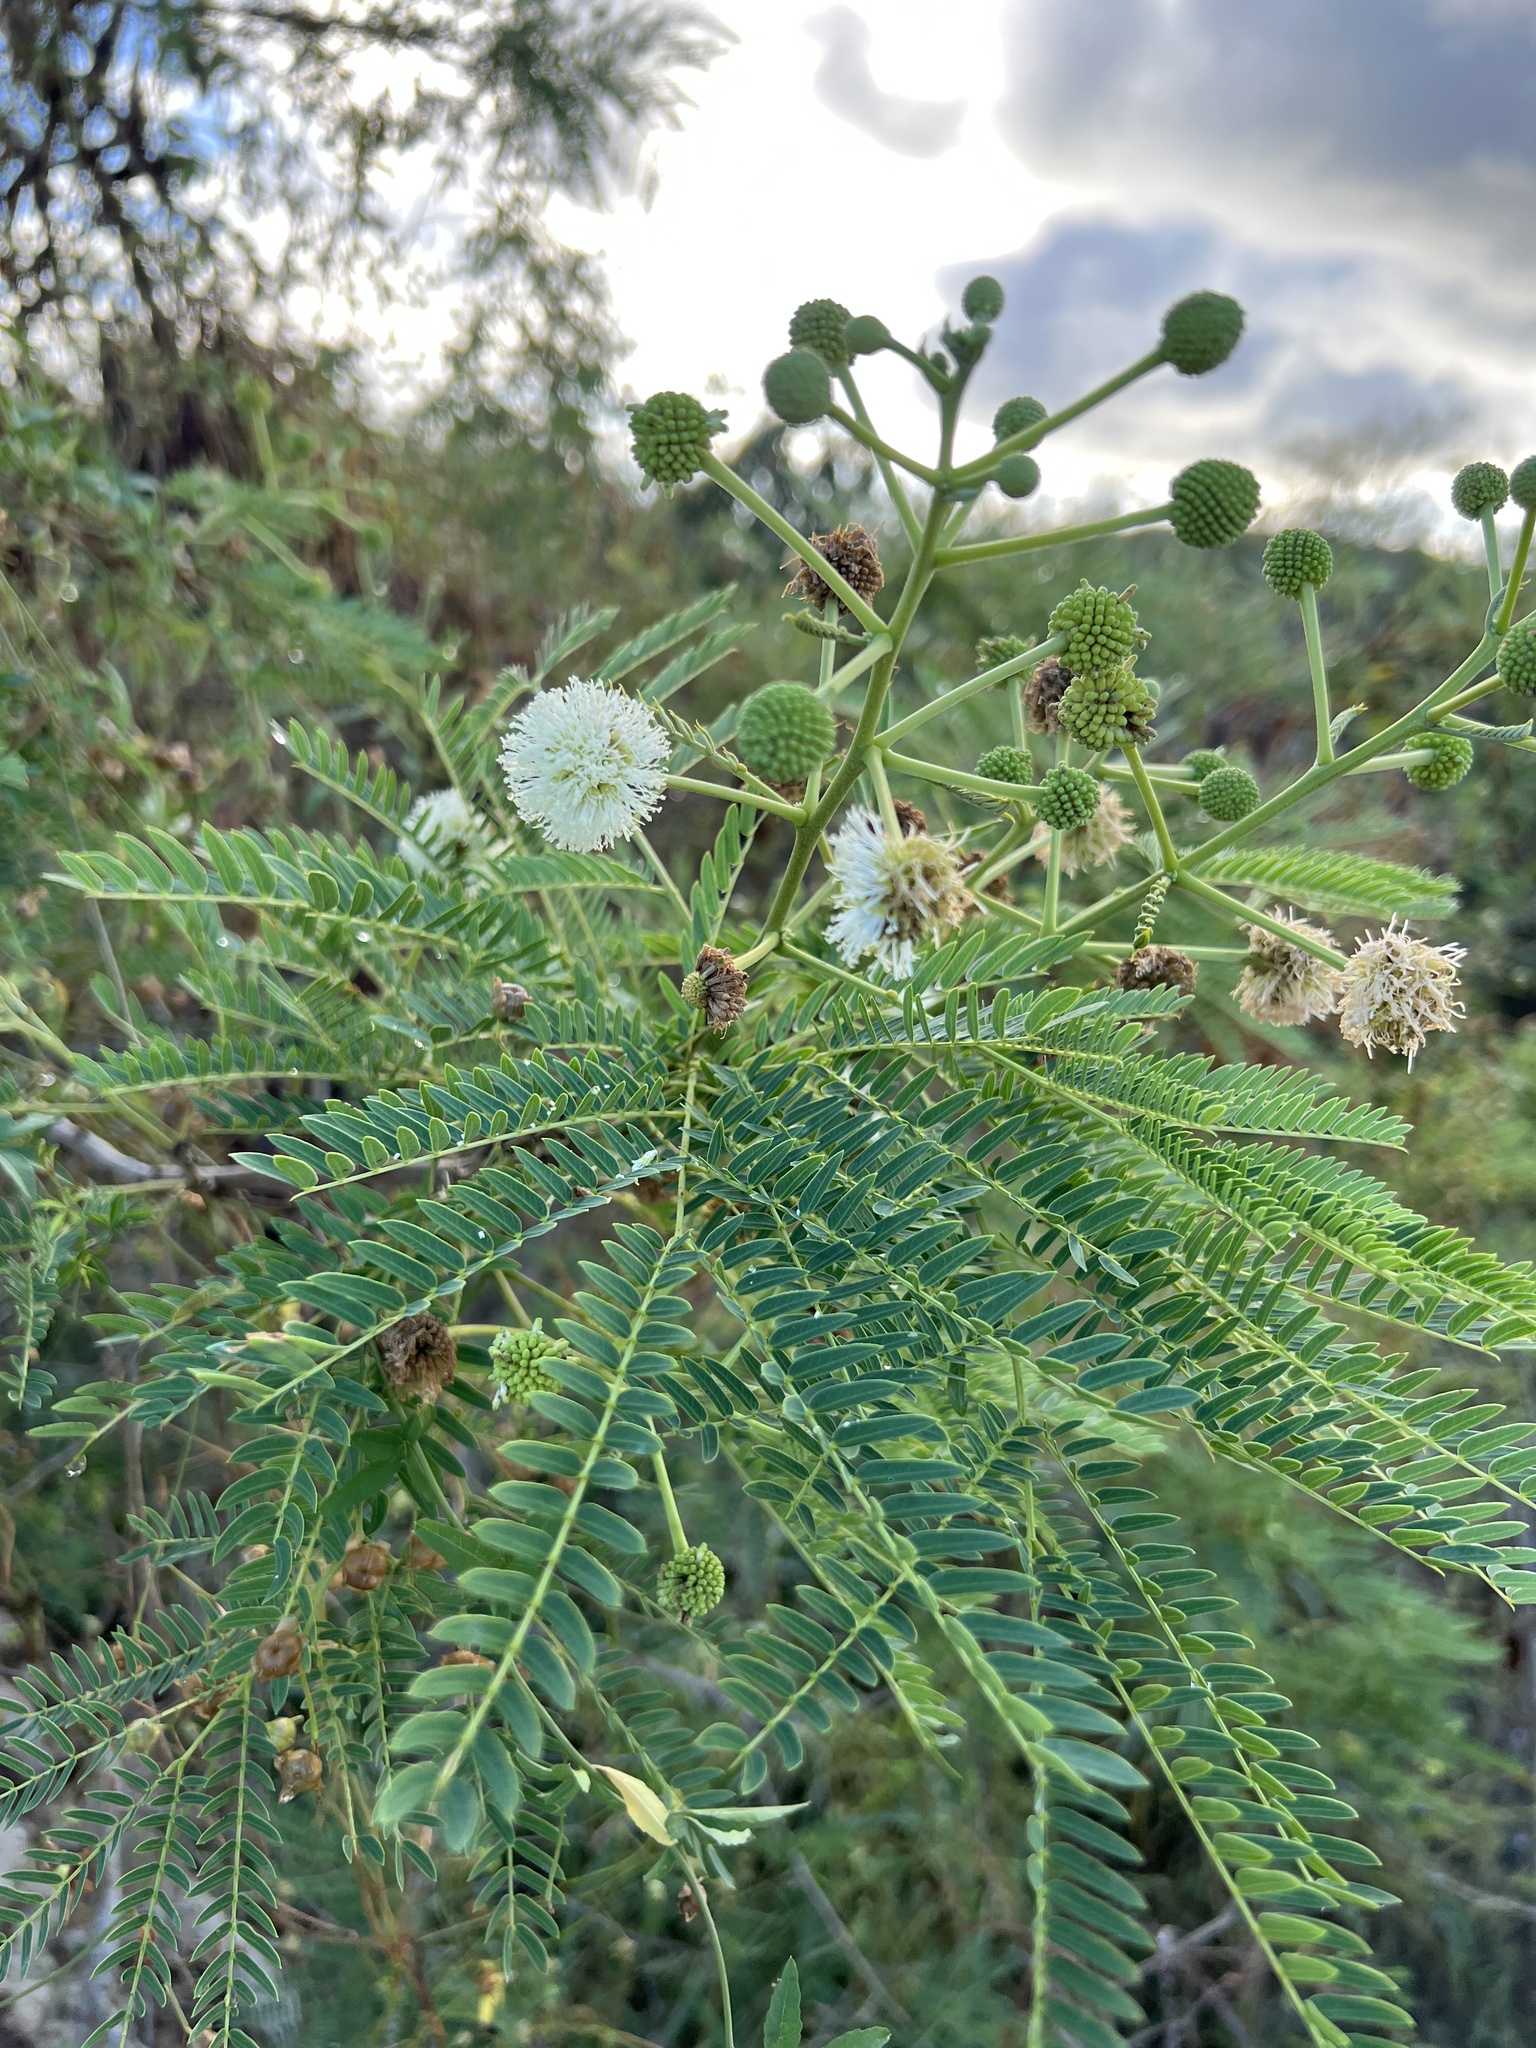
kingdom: Plantae
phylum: Tracheophyta
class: Magnoliopsida
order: Fabales
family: Fabaceae
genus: Leucaena
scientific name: Leucaena leucocephala
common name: White leadtree
